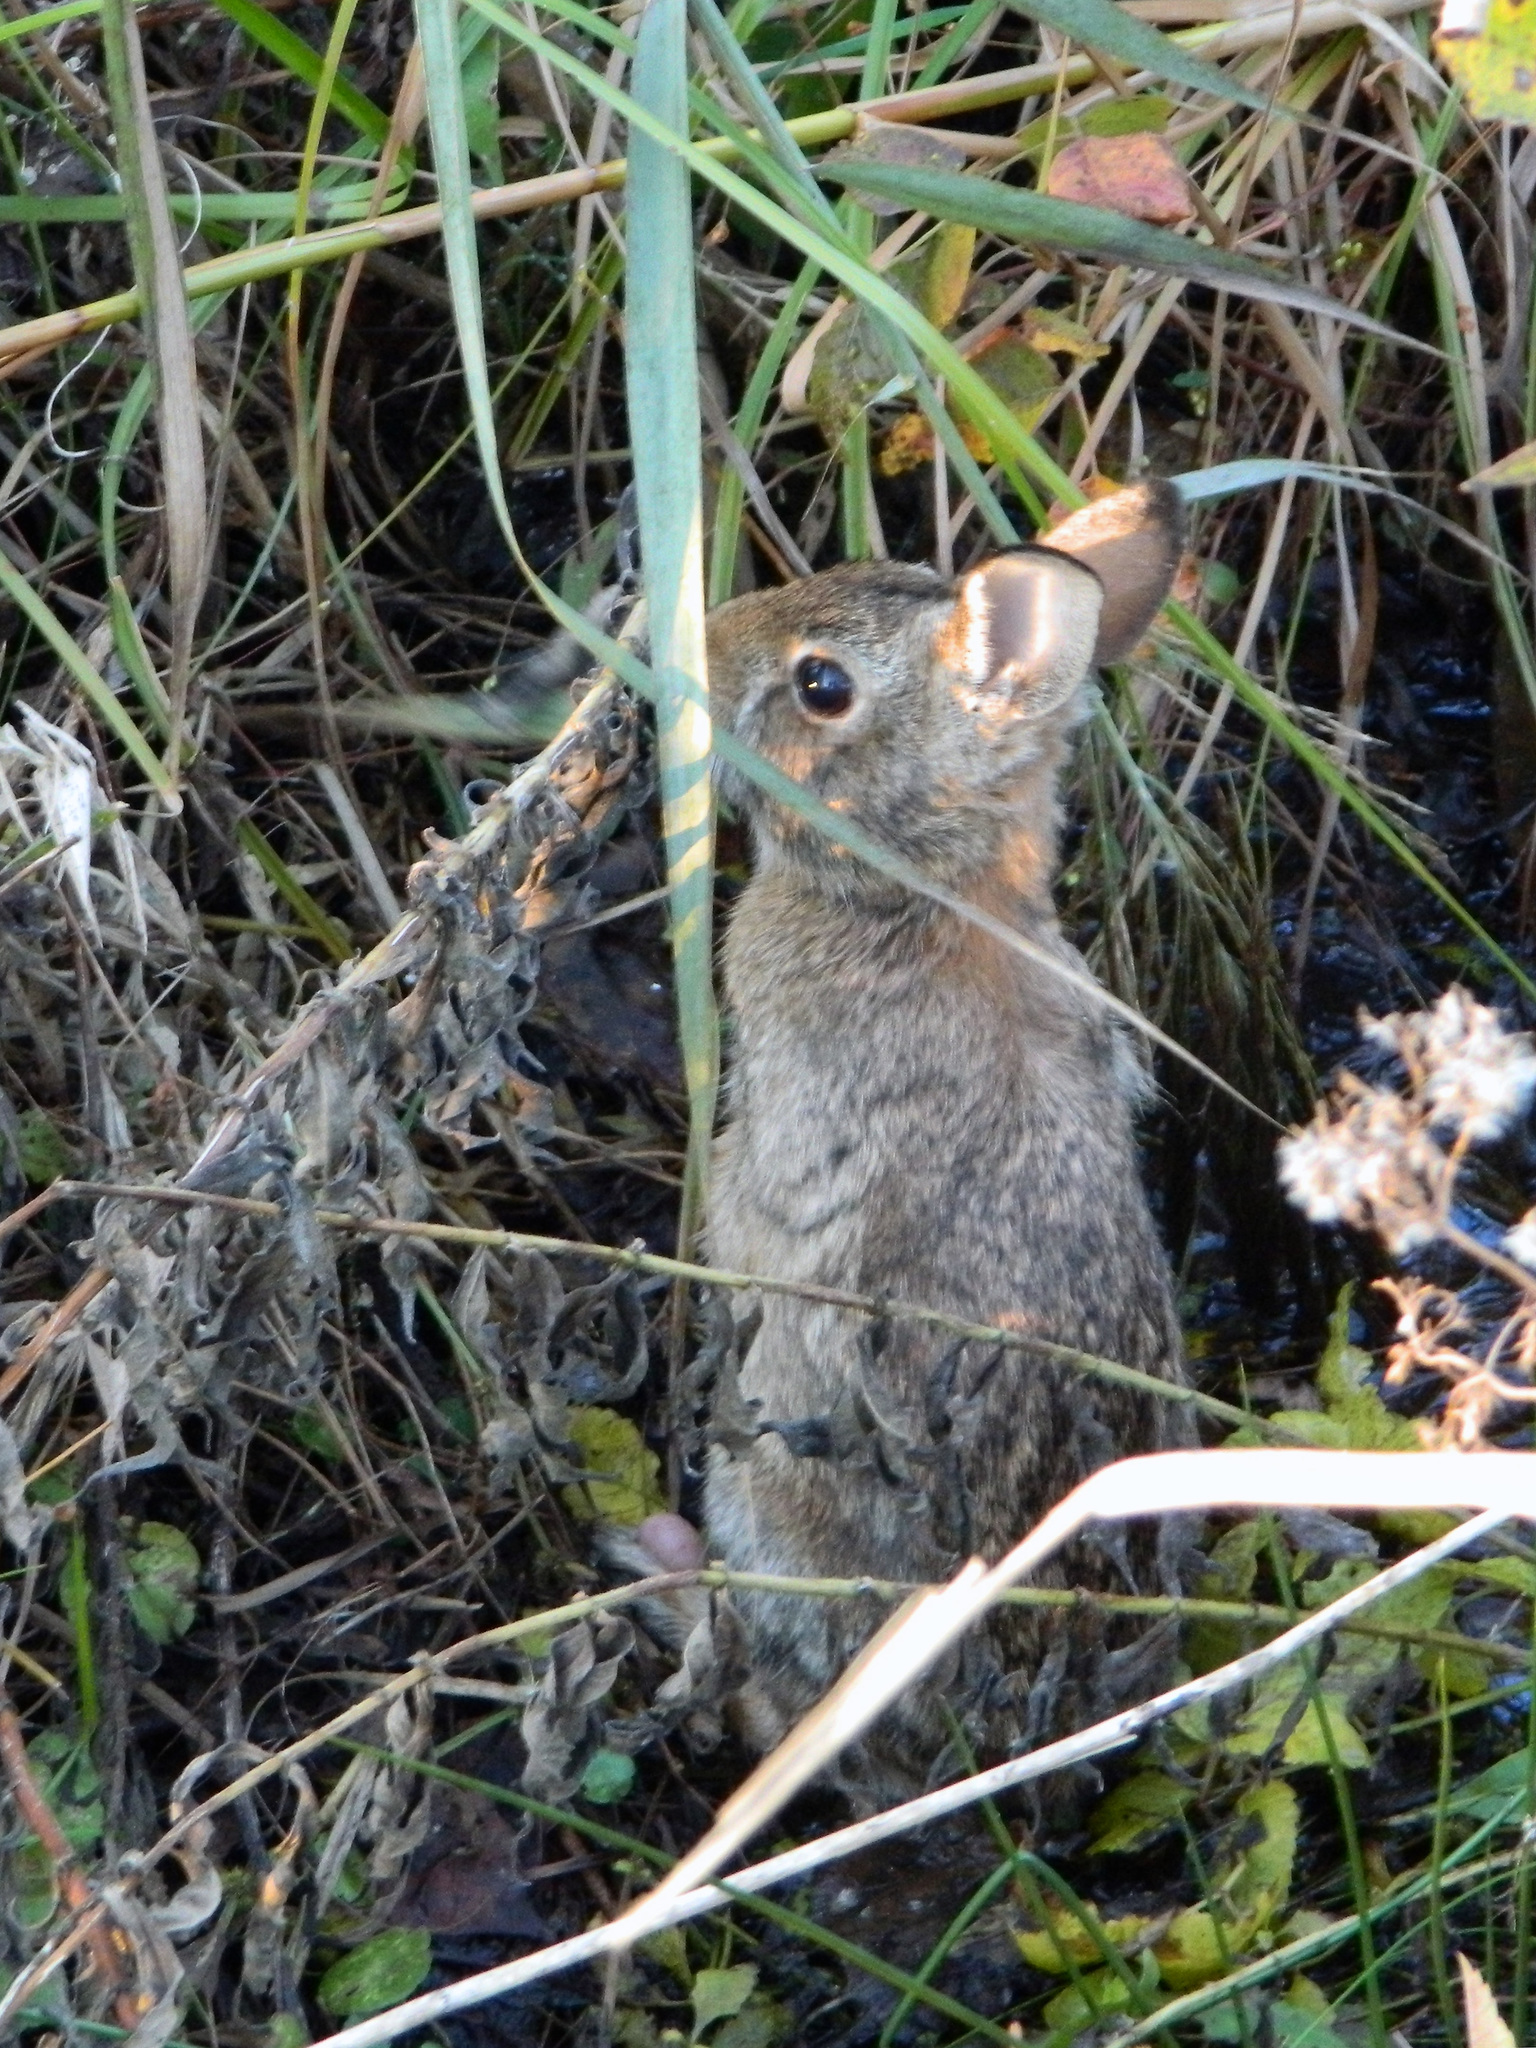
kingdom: Animalia
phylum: Chordata
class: Mammalia
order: Lagomorpha
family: Leporidae
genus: Sylvilagus
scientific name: Sylvilagus floridanus
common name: Eastern cottontail
